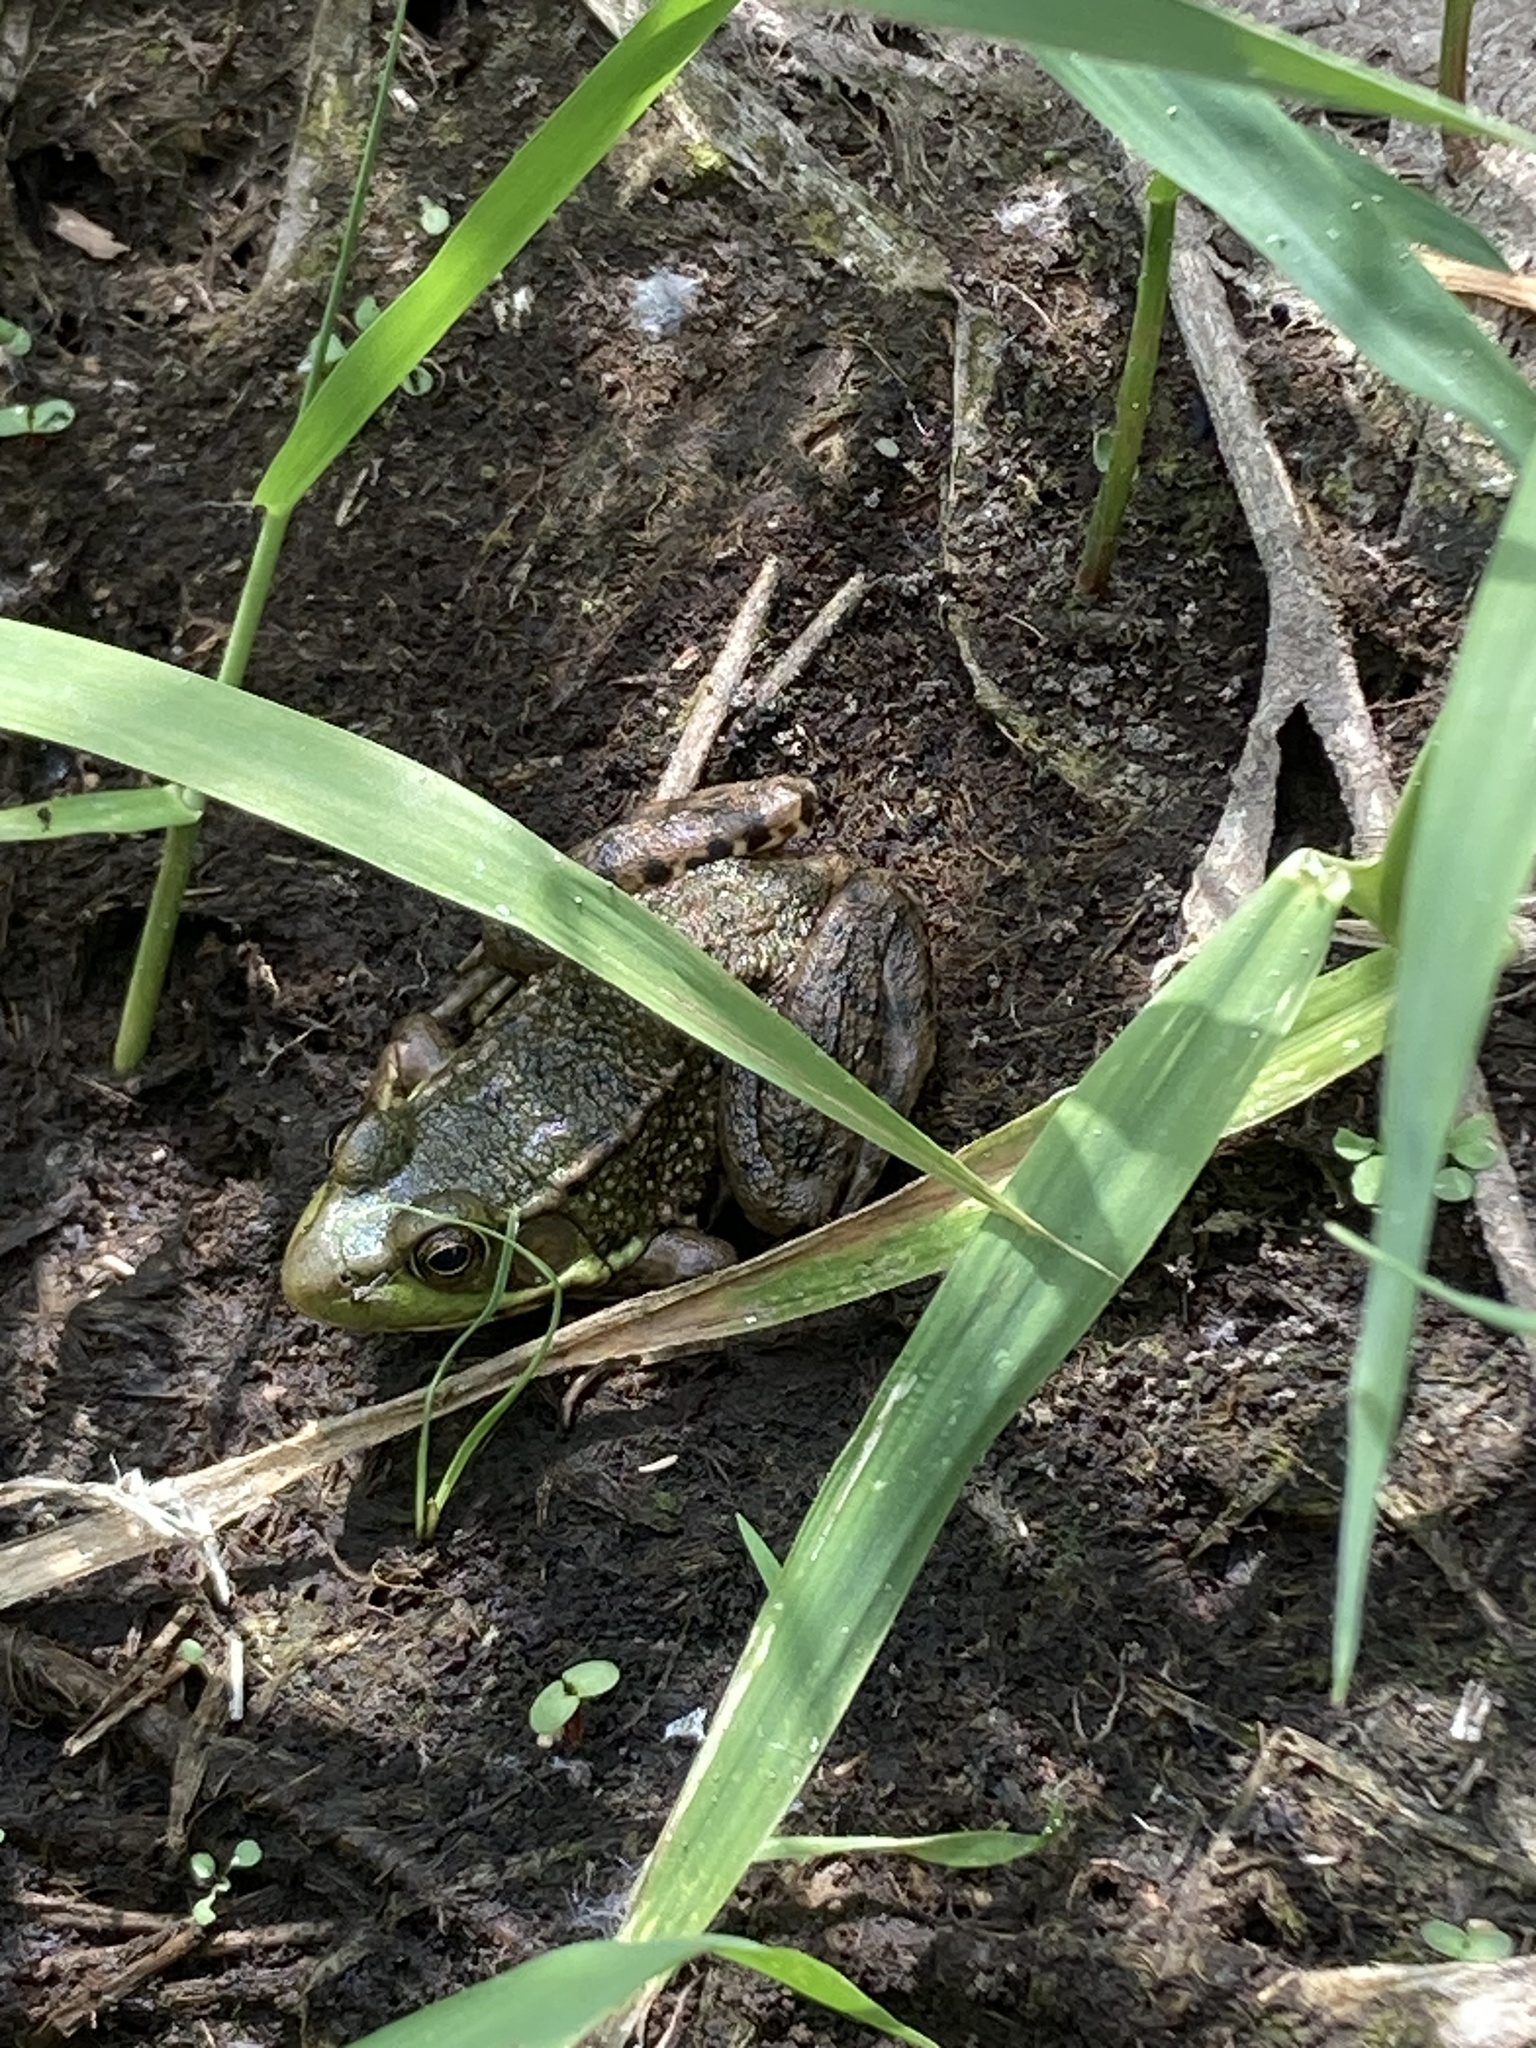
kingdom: Animalia
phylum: Chordata
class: Amphibia
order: Anura
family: Ranidae
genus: Lithobates
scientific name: Lithobates clamitans
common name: Green frog
